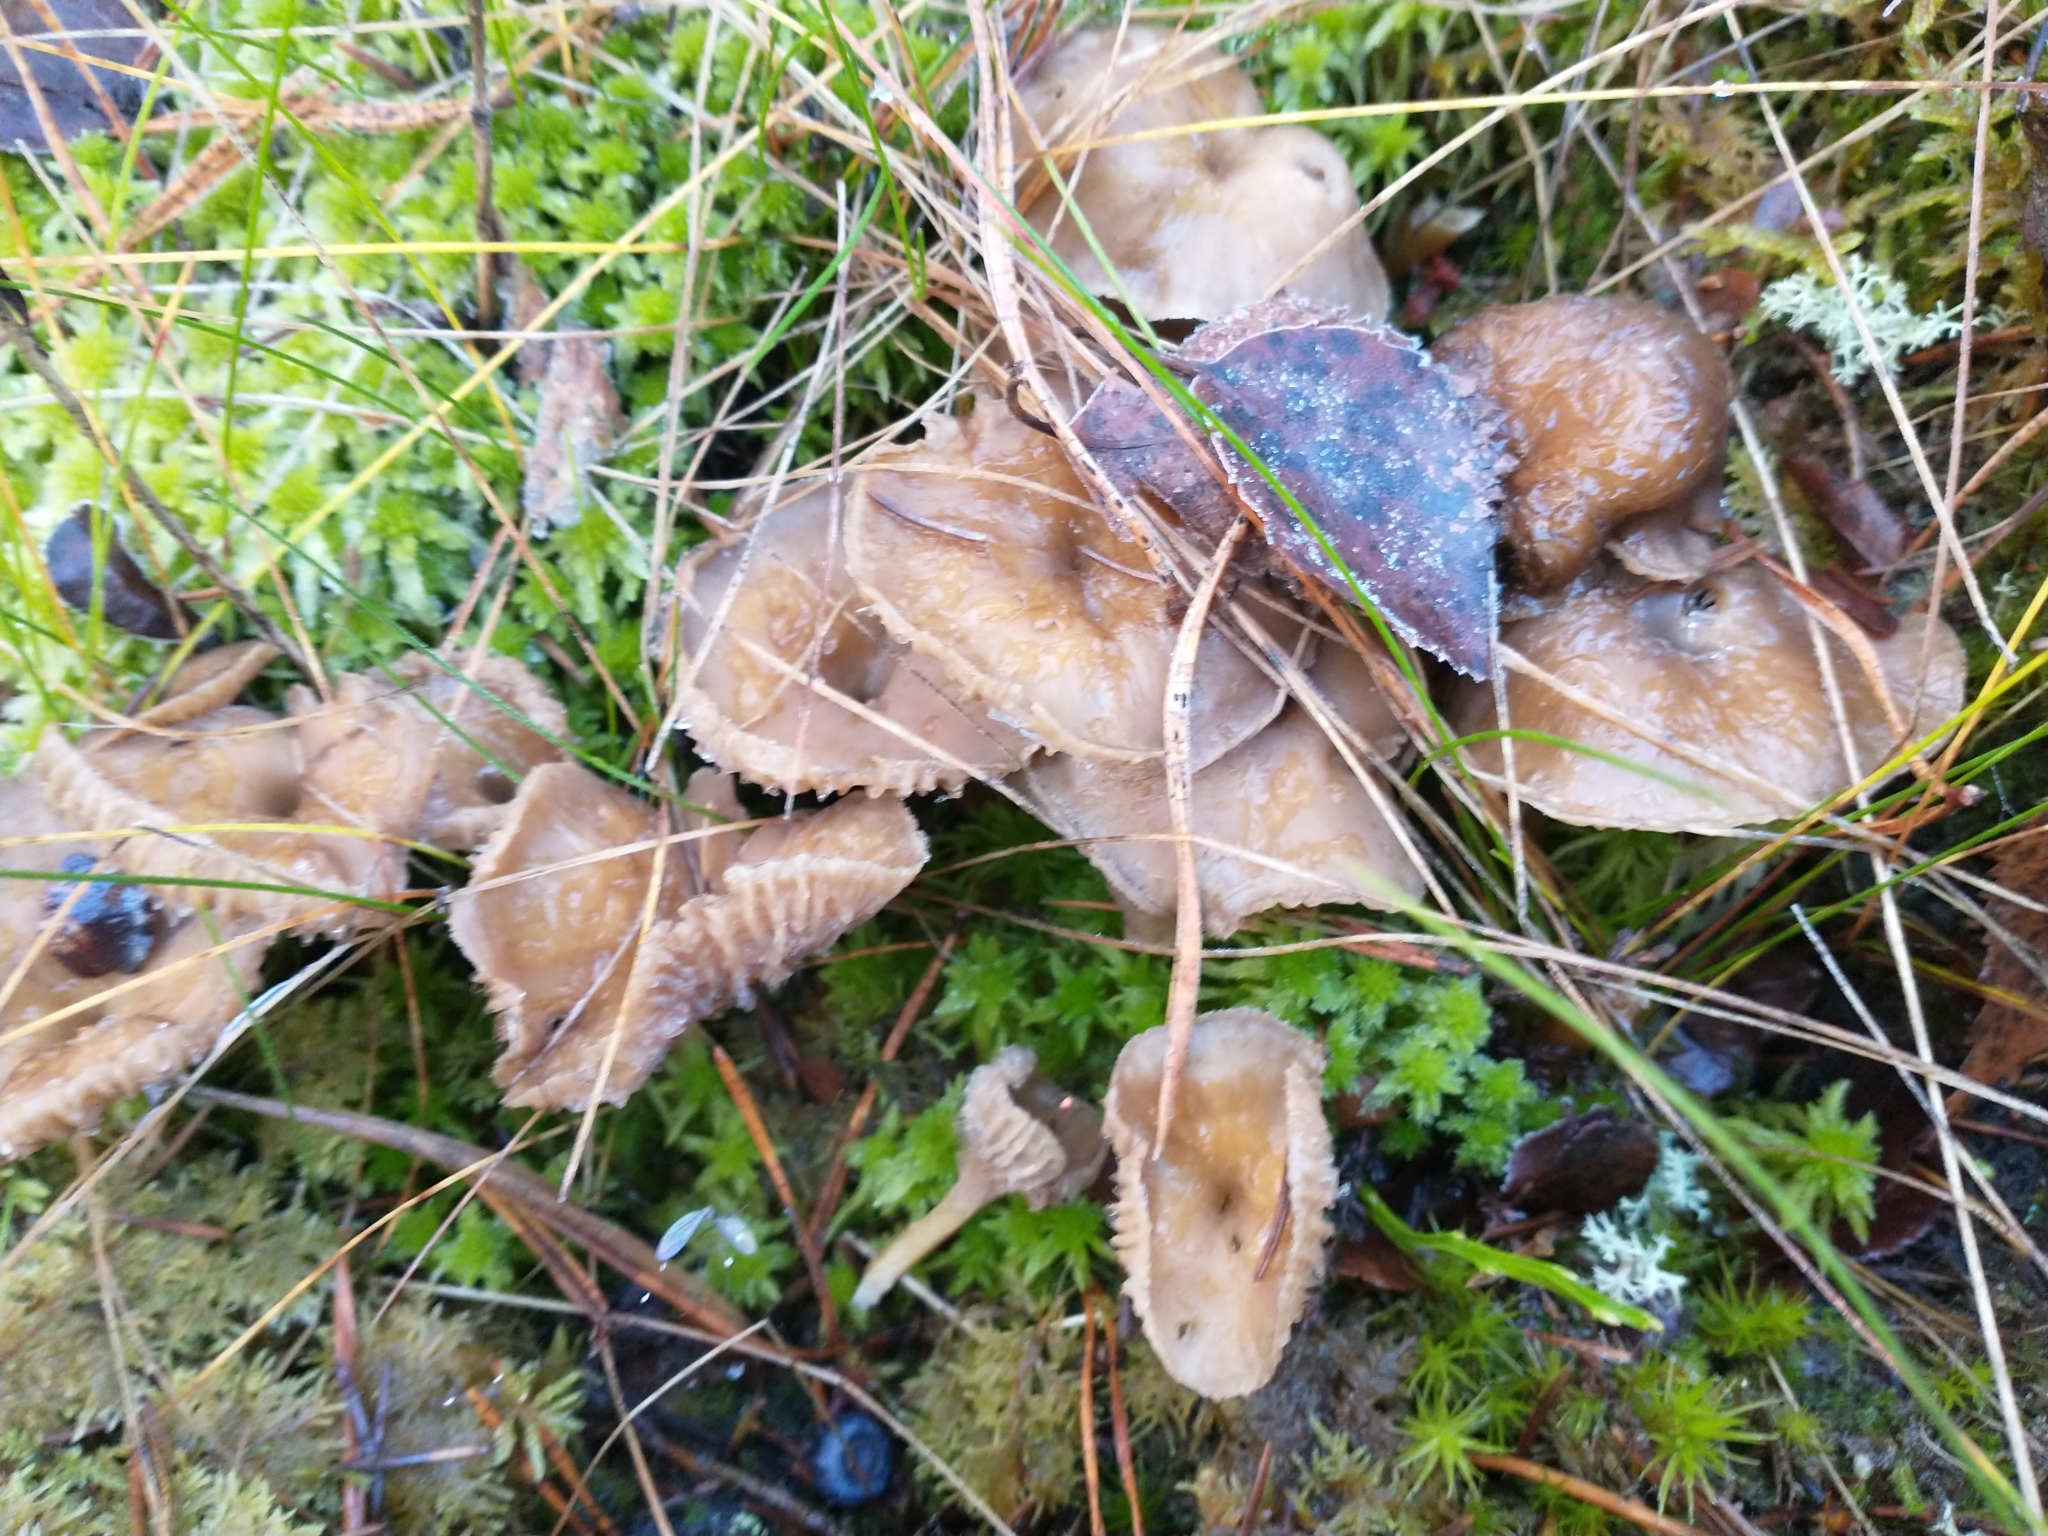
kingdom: Fungi
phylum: Basidiomycota
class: Agaricomycetes
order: Cantharellales
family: Hydnaceae
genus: Craterellus
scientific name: Craterellus tubaeformis
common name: Yellowfoot
